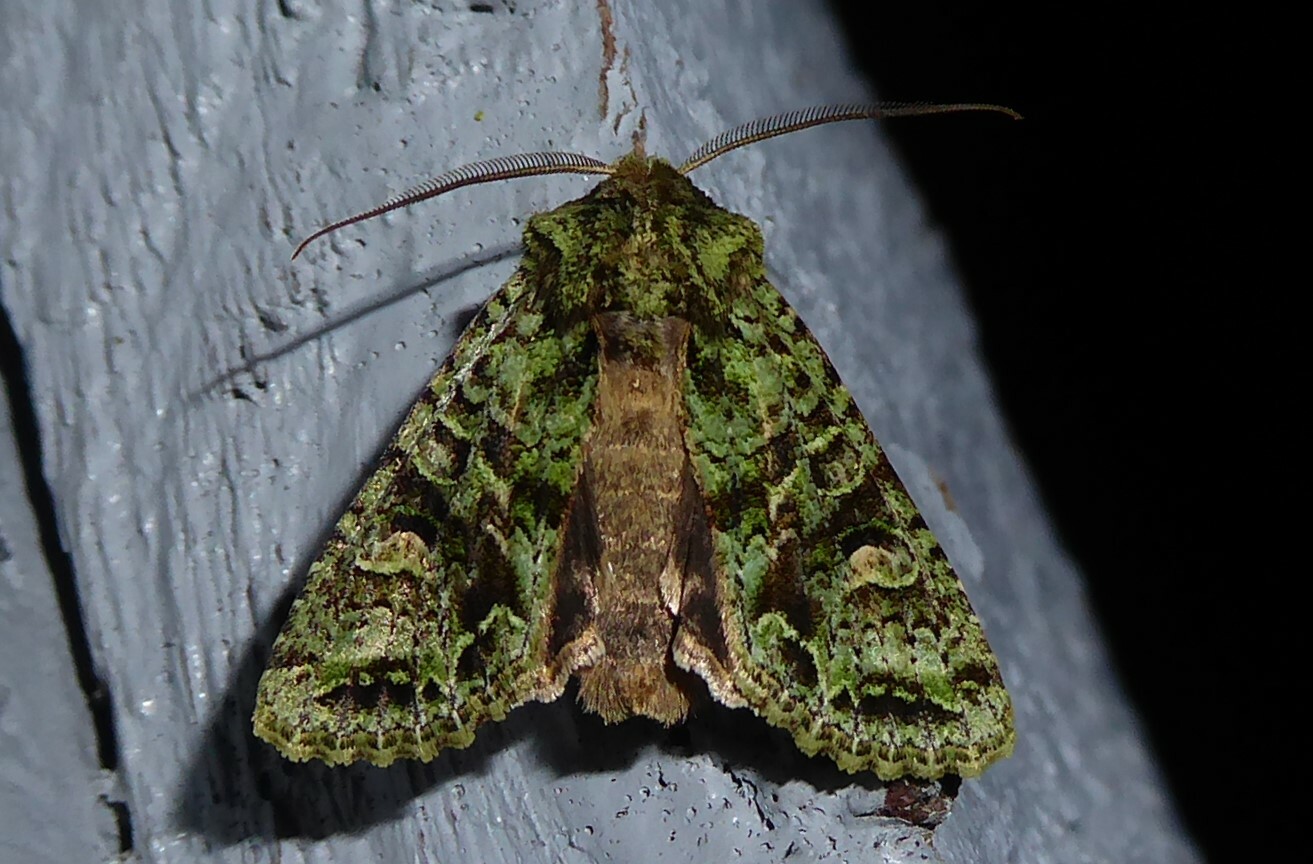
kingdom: Animalia
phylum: Arthropoda
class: Insecta
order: Lepidoptera
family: Noctuidae
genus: Ichneutica
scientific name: Ichneutica
